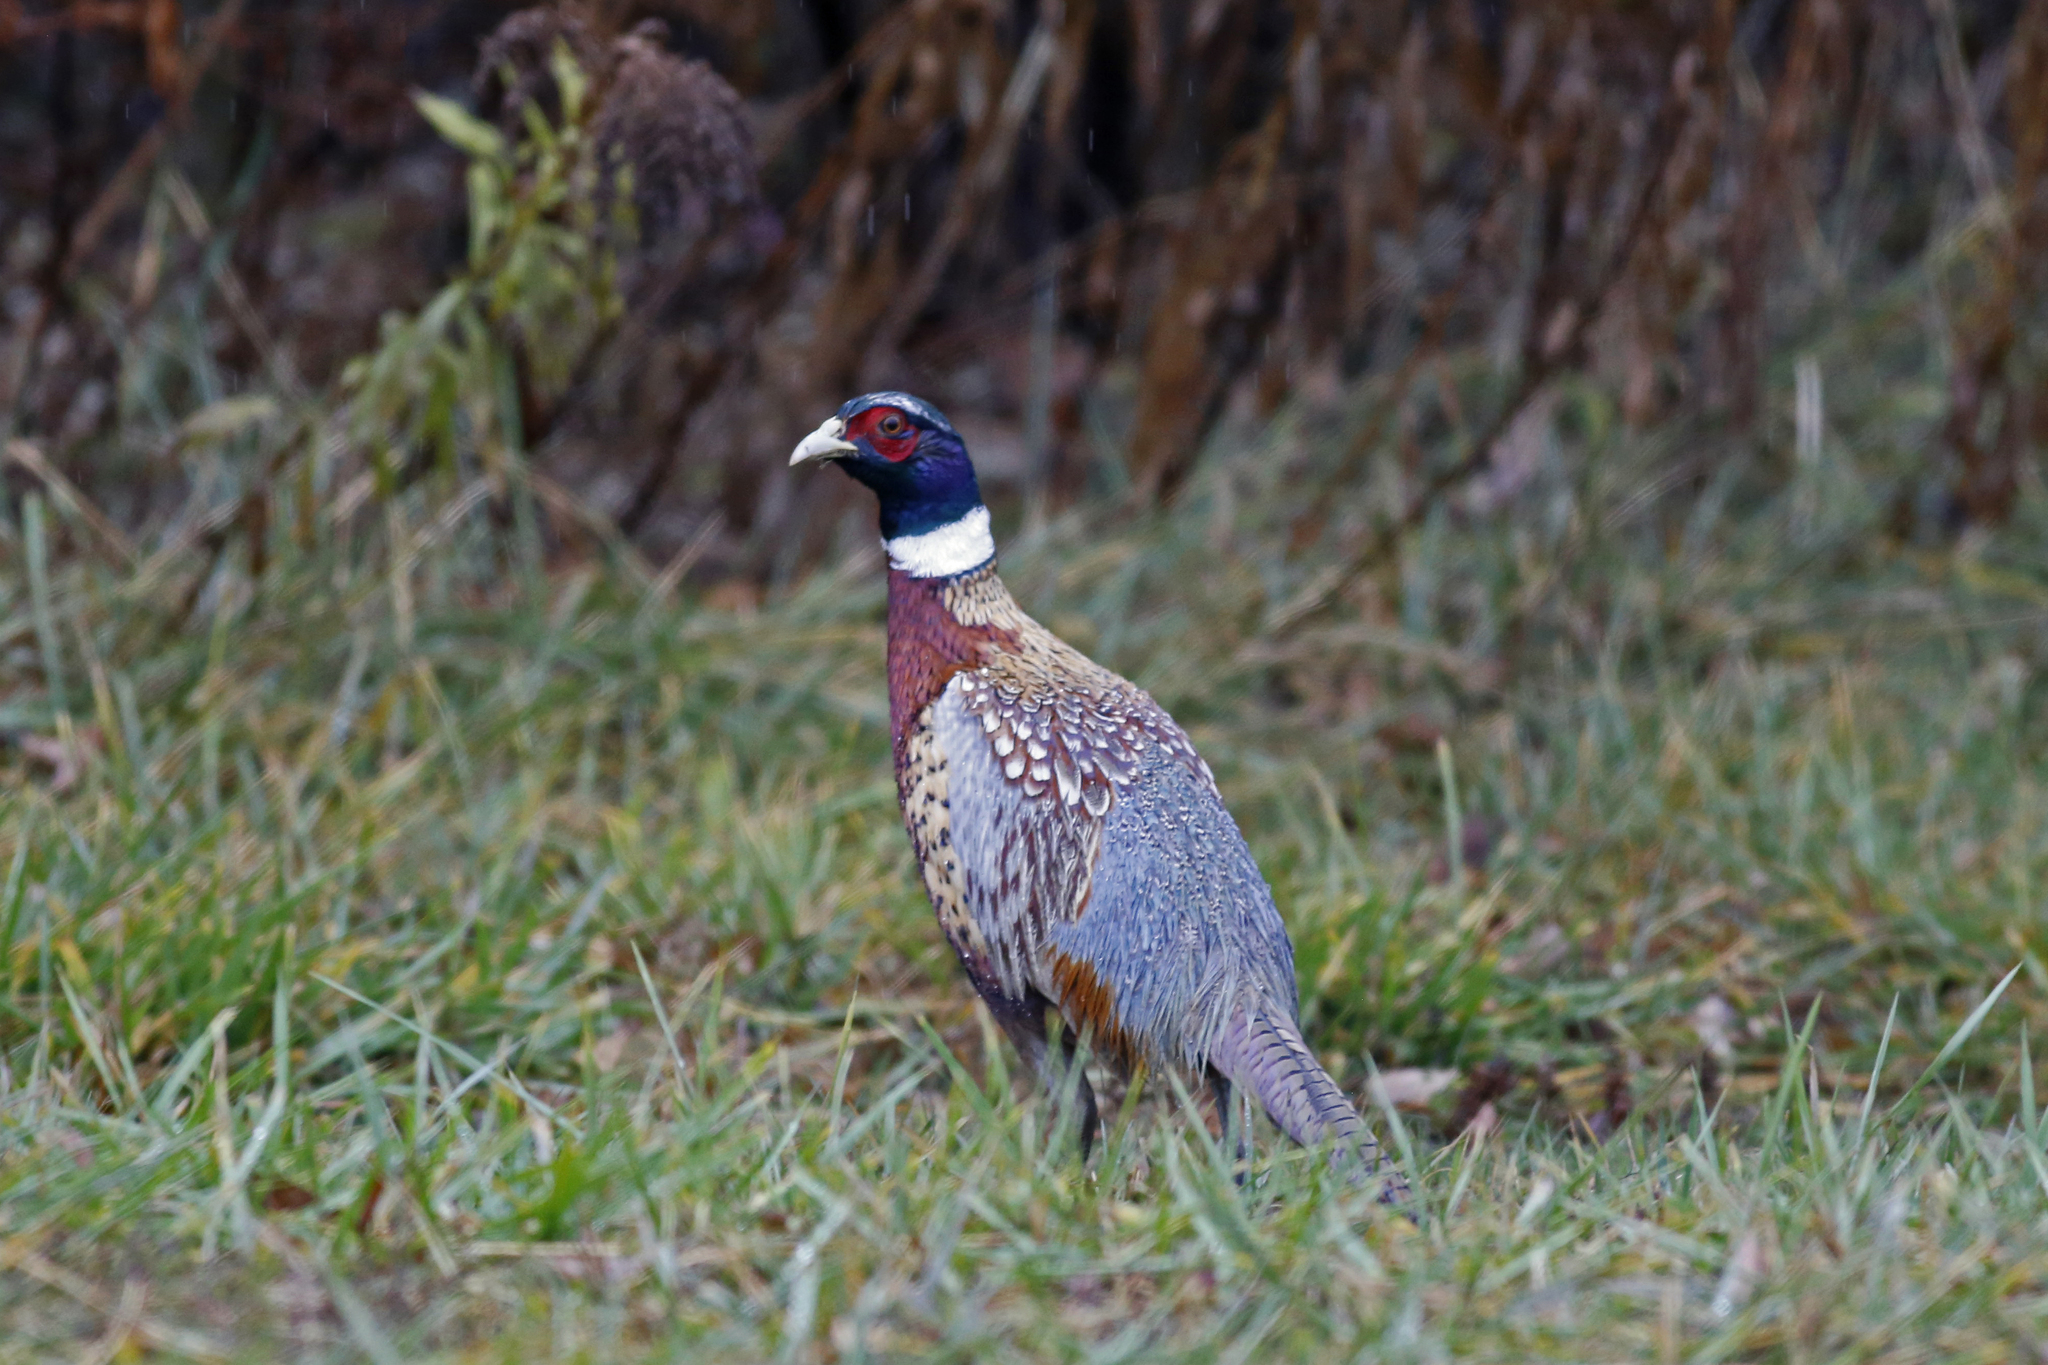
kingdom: Animalia
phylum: Chordata
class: Aves
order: Galliformes
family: Phasianidae
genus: Phasianus
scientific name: Phasianus colchicus
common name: Common pheasant
